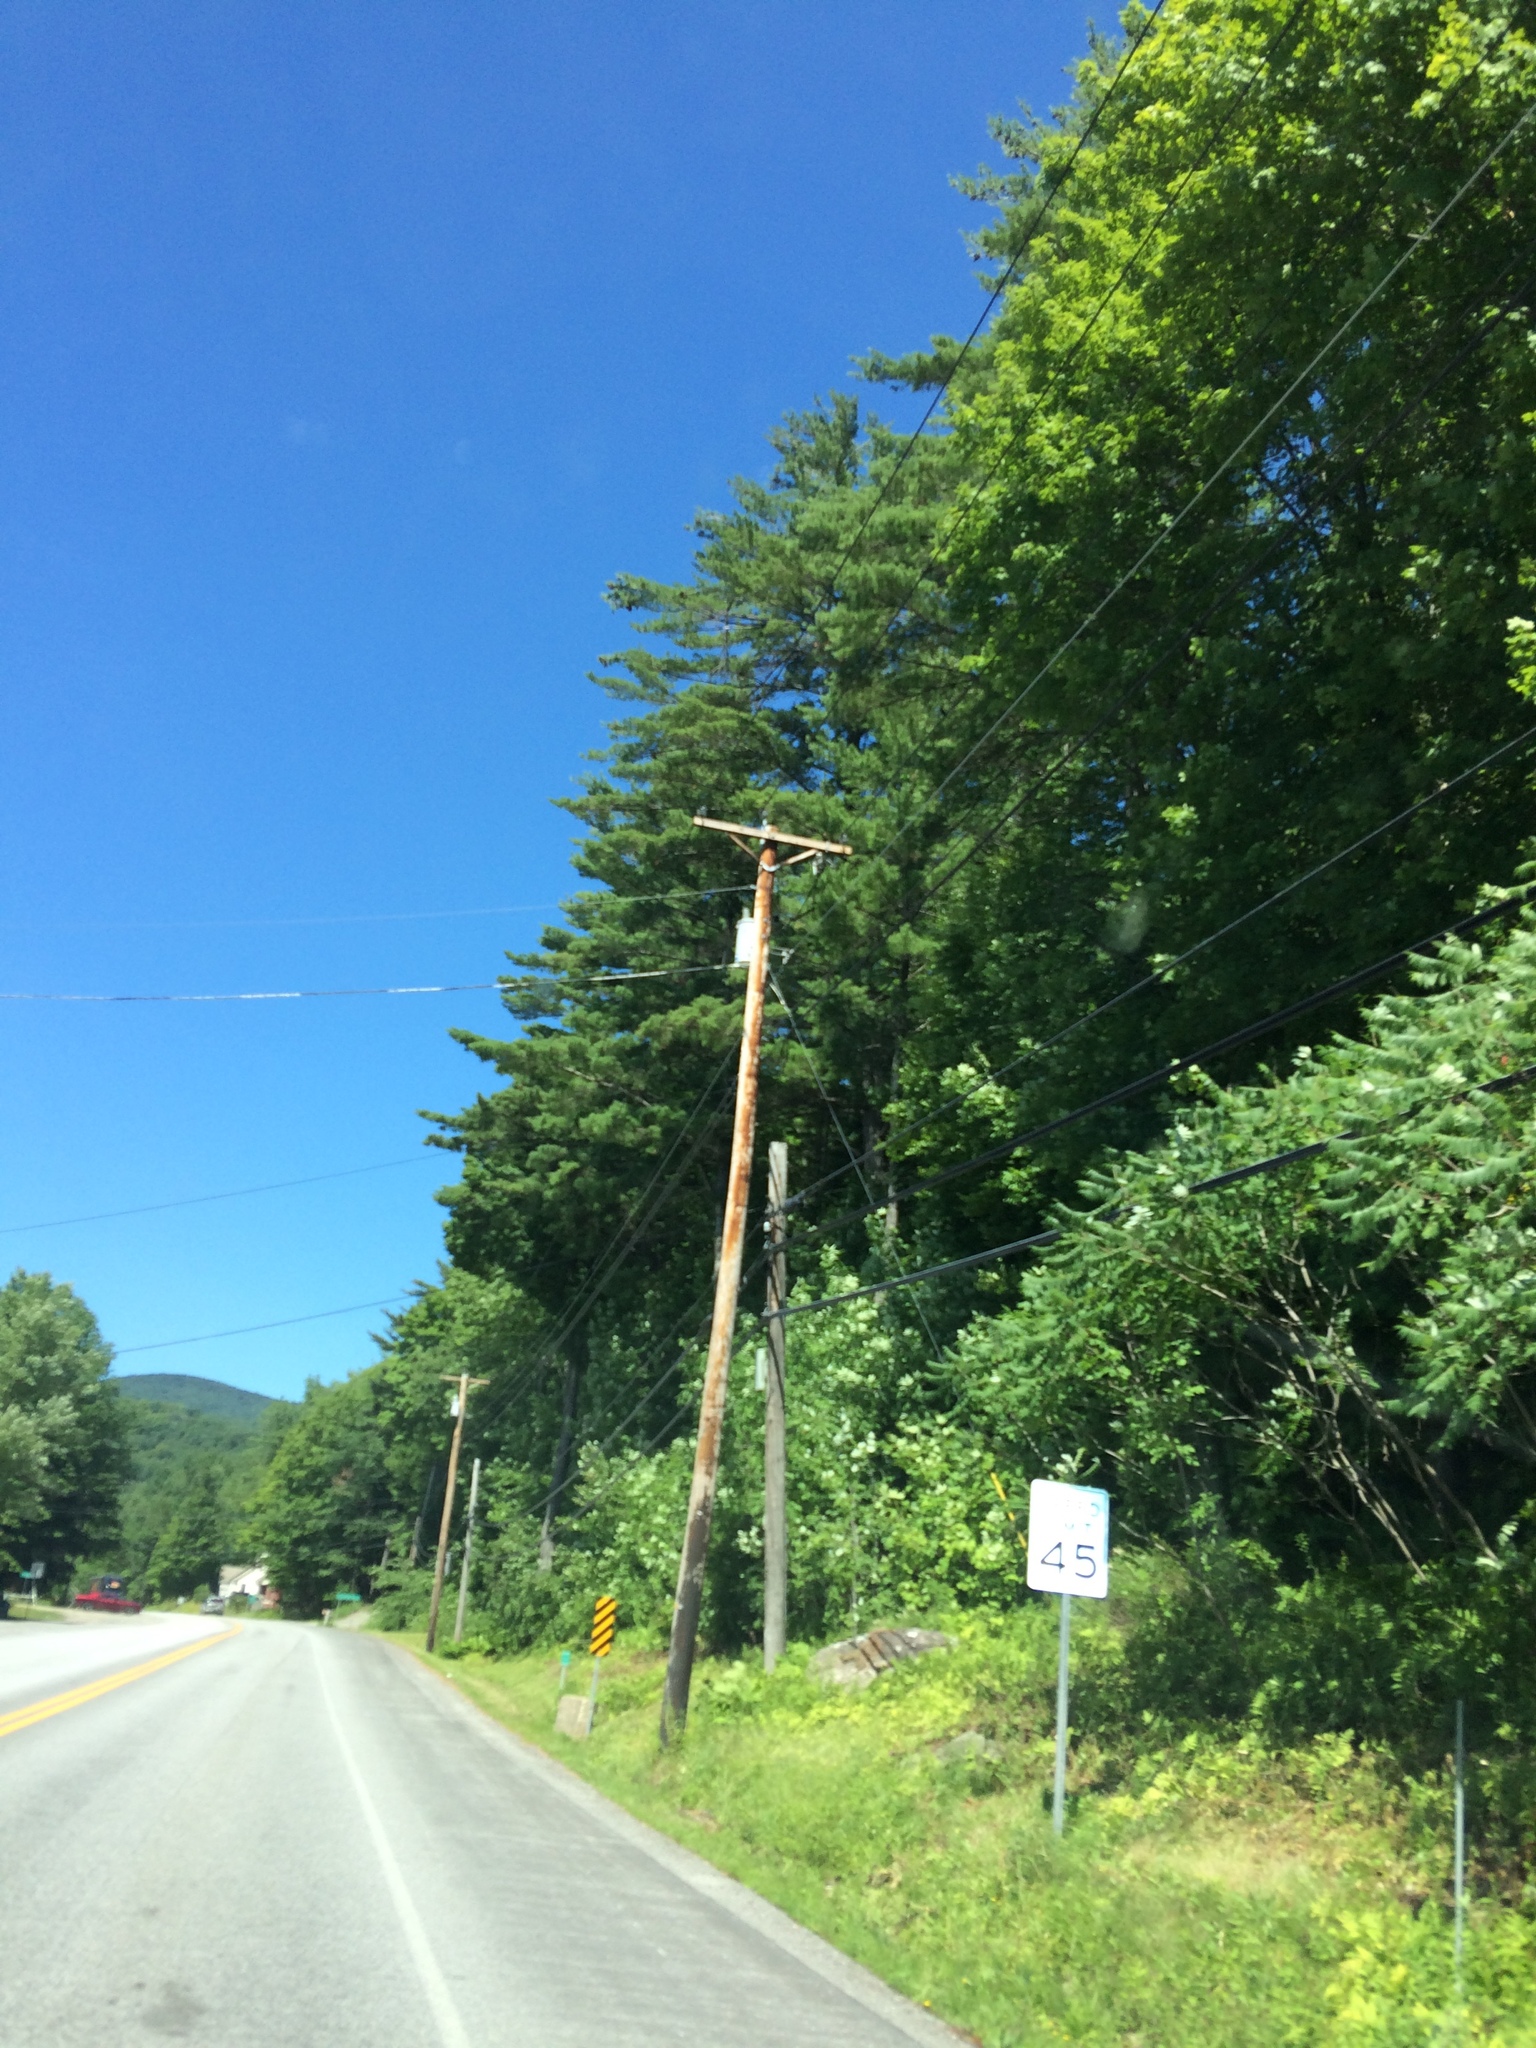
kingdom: Plantae
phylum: Tracheophyta
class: Pinopsida
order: Pinales
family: Pinaceae
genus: Pinus
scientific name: Pinus strobus
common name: Weymouth pine
